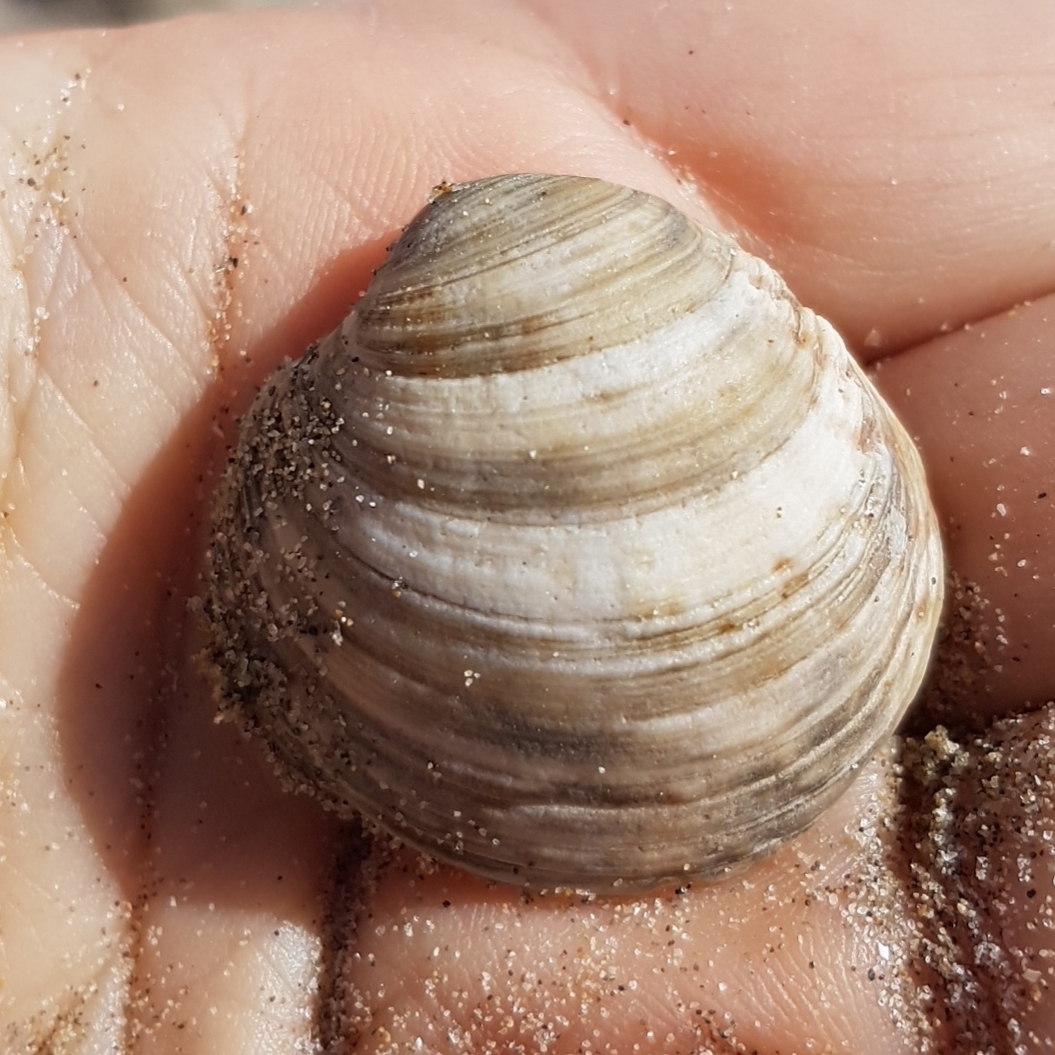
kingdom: Animalia
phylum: Mollusca
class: Bivalvia
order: Venerida
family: Veneridae
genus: Venus
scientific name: Venus verrucosa
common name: Warty venus
